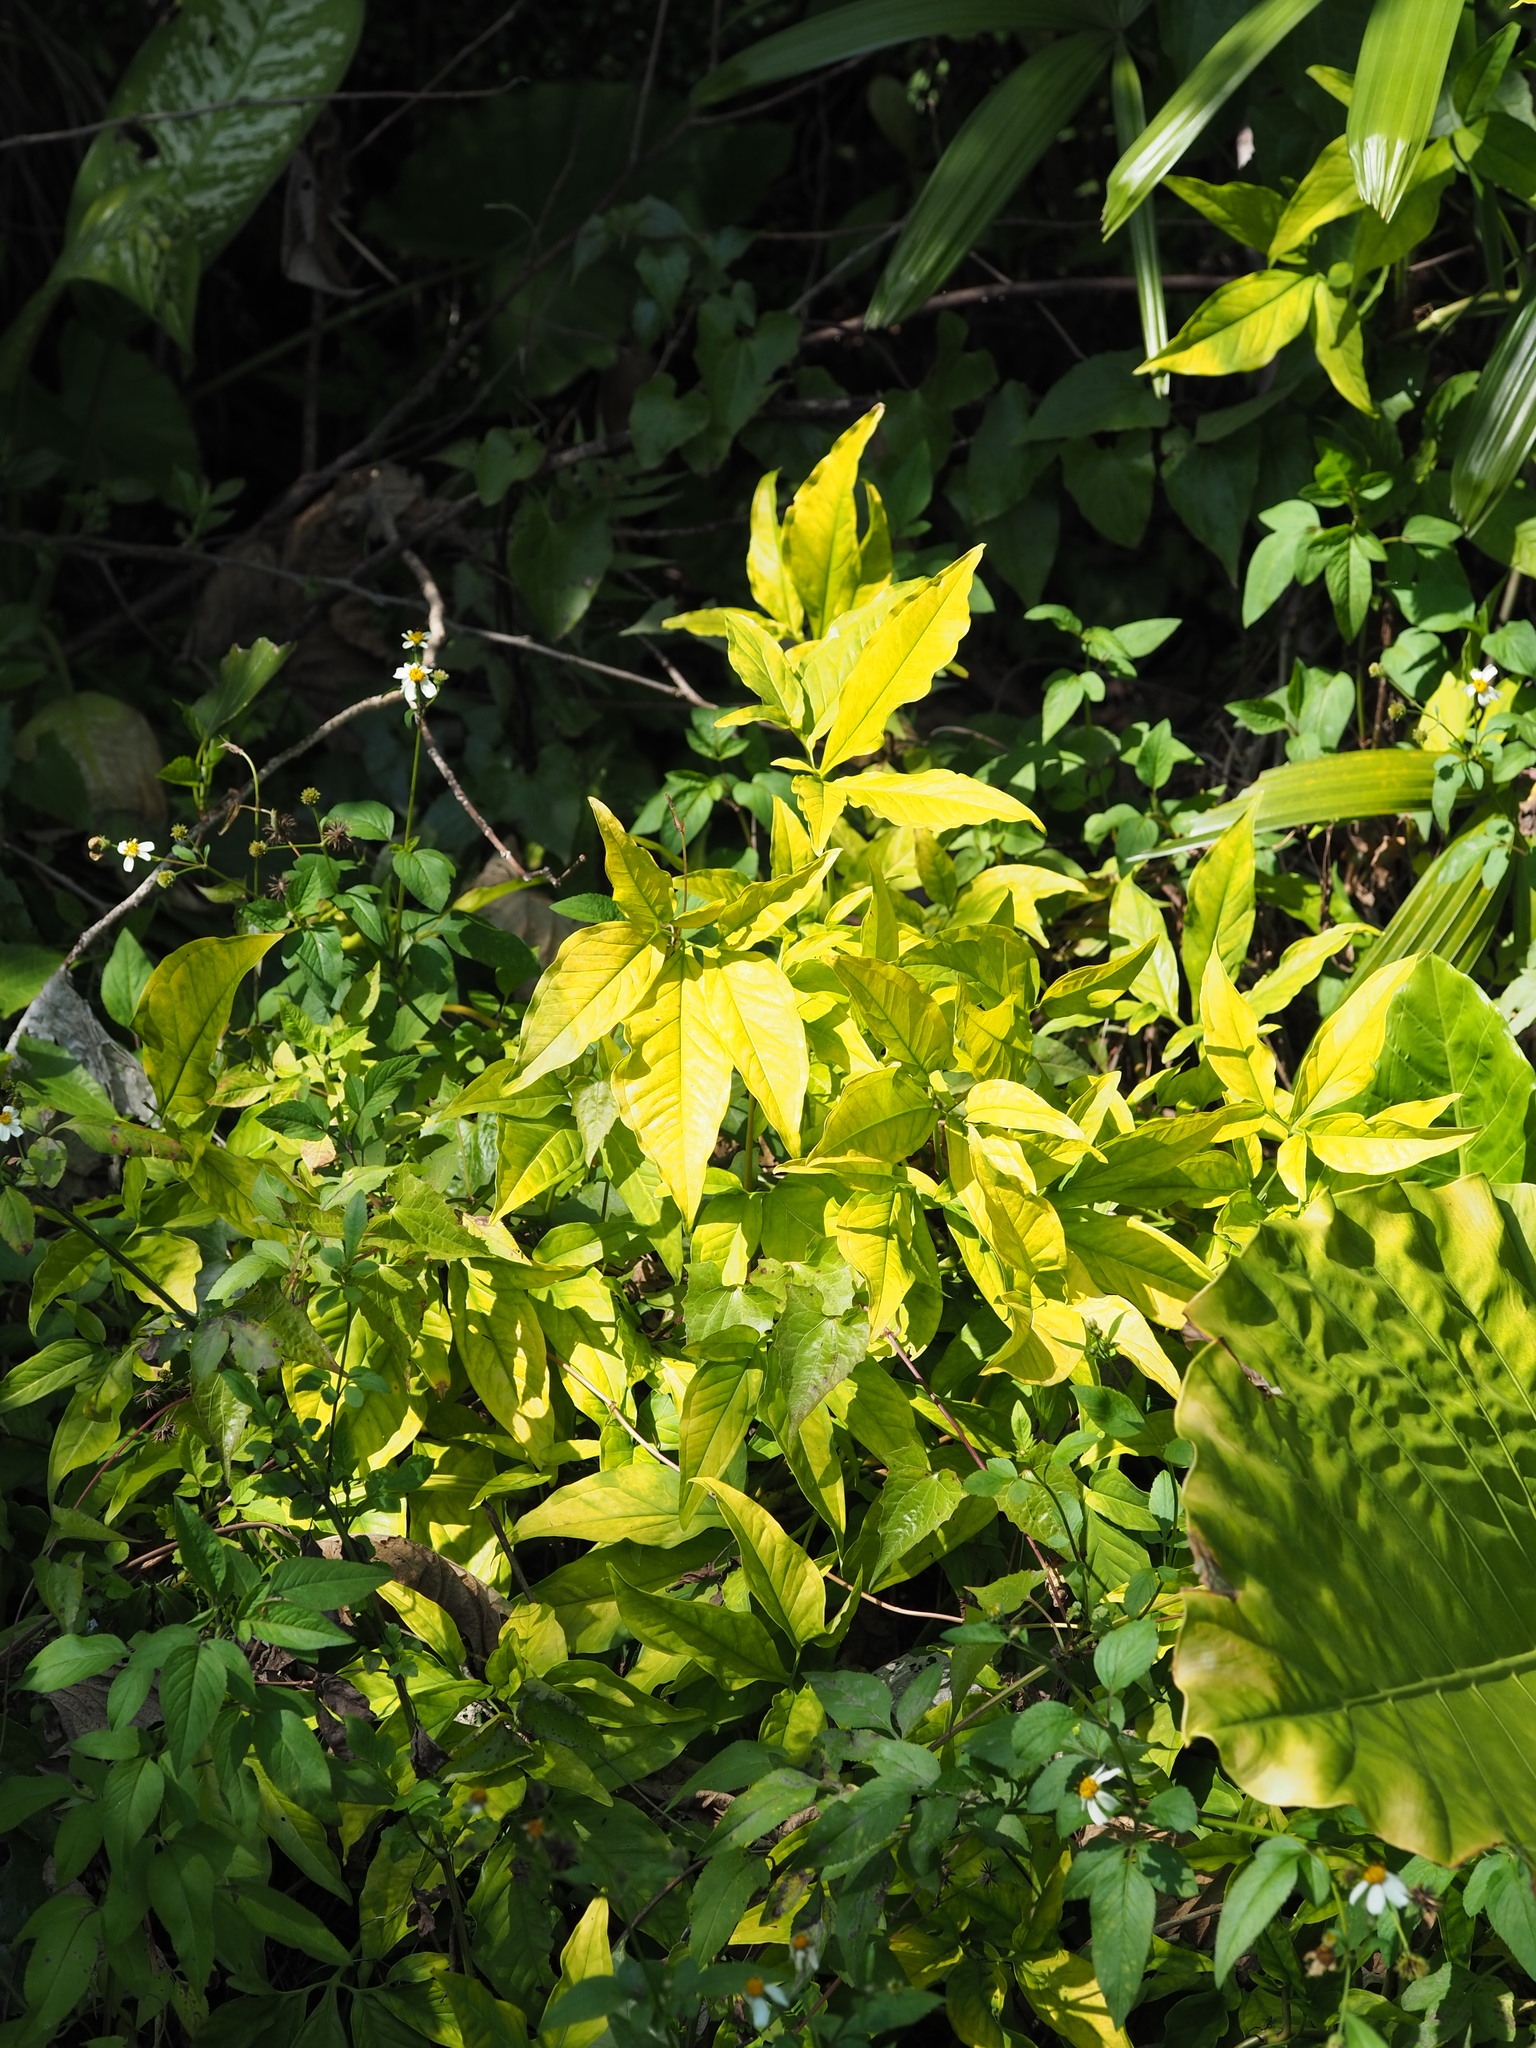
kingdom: Plantae
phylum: Tracheophyta
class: Liliopsida
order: Alismatales
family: Araceae
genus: Syngonium
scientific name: Syngonium angustatum
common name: Fivefingers
